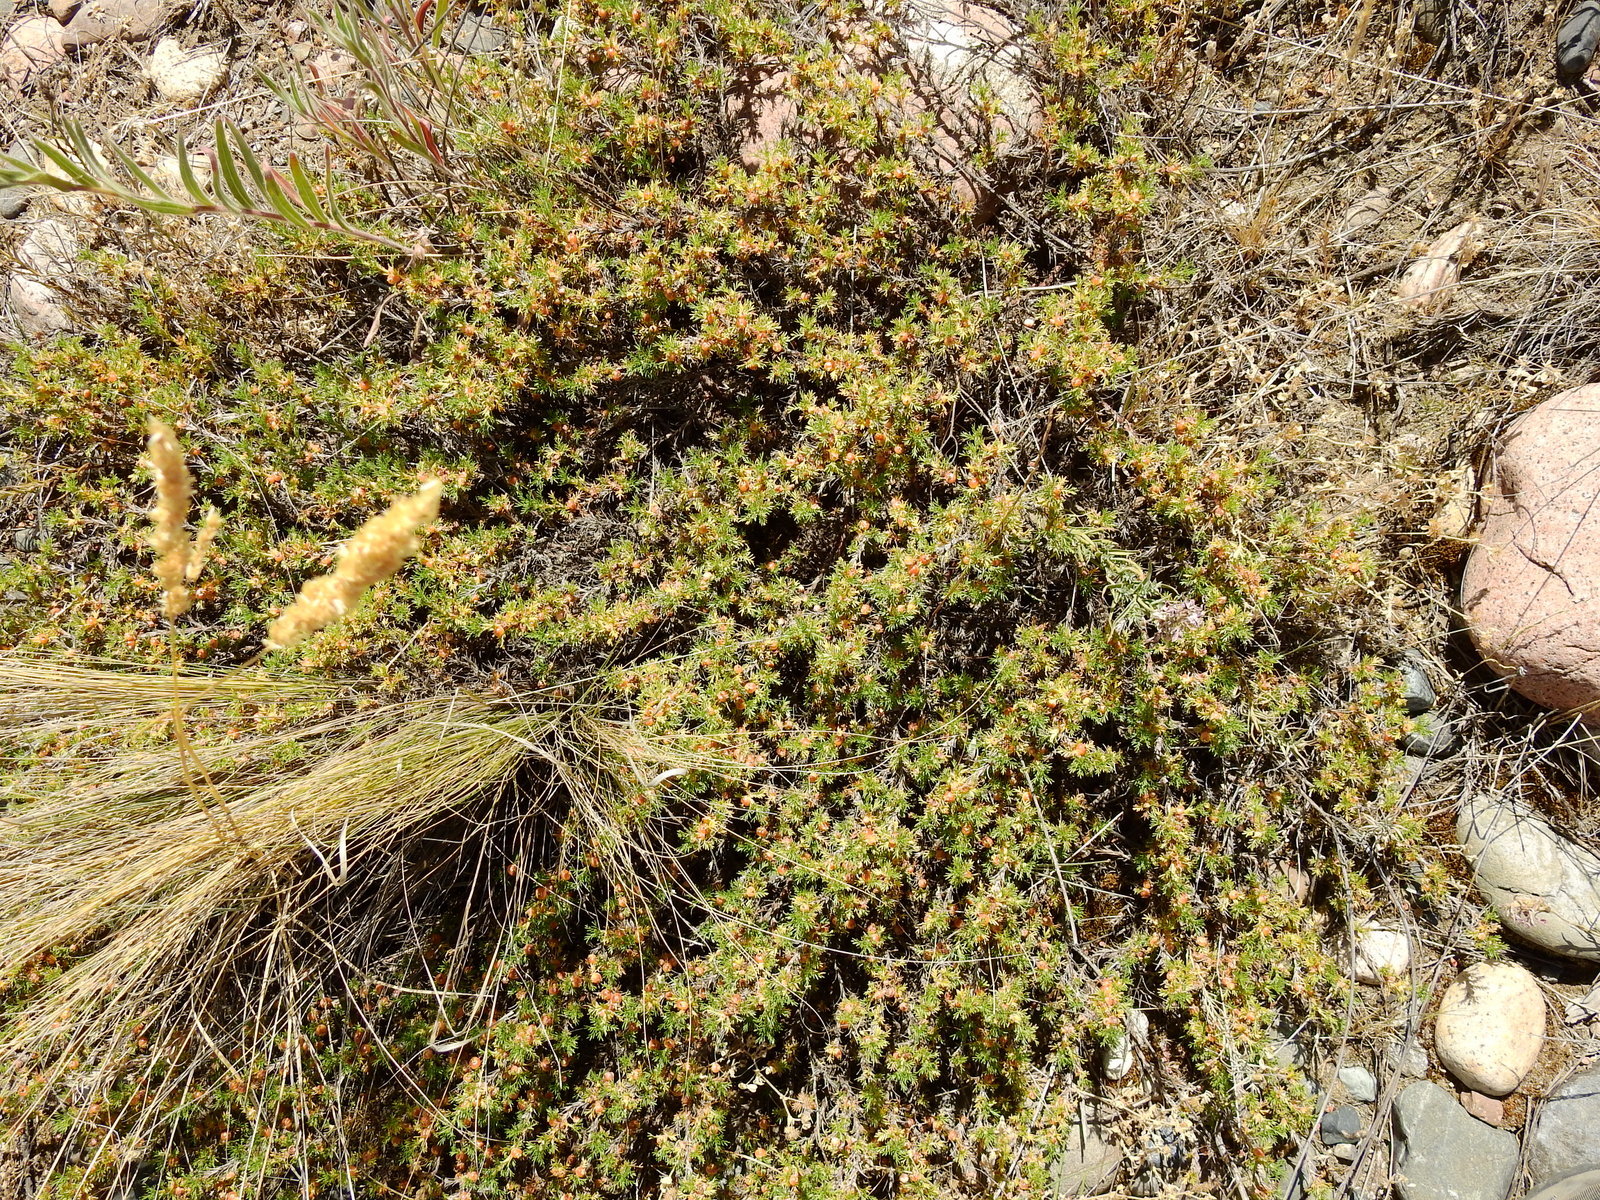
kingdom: Plantae
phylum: Tracheophyta
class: Magnoliopsida
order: Rosales
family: Rosaceae
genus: Margyricarpus
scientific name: Margyricarpus pinnatus
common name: Pearlfruit
